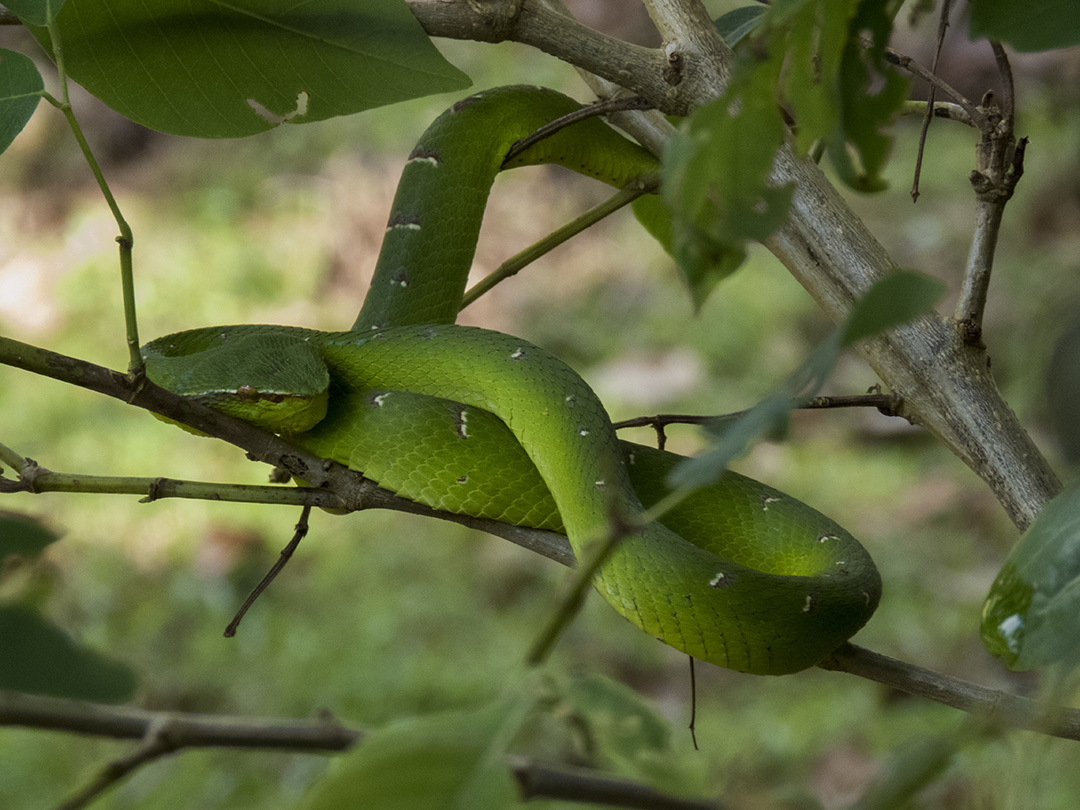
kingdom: Animalia
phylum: Chordata
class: Squamata
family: Viperidae
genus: Tropidolaemus
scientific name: Tropidolaemus subannulatus
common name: North philippine temple pitviper
